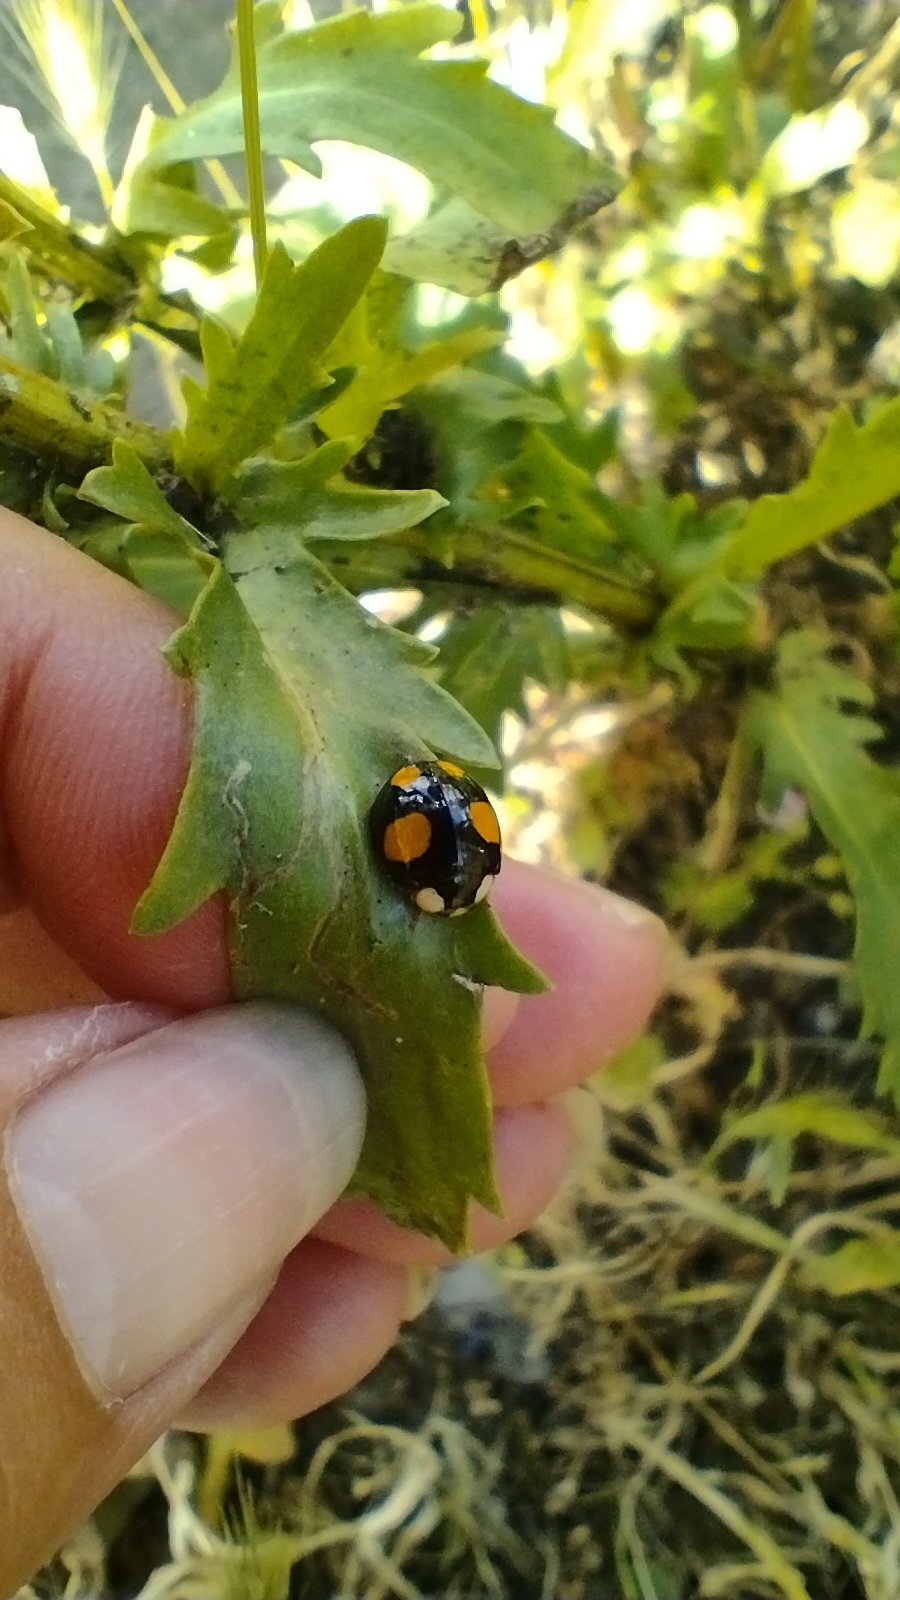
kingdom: Animalia
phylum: Arthropoda
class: Insecta
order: Coleoptera
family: Coccinellidae
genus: Harmonia
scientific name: Harmonia axyridis
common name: Harlequin ladybird
